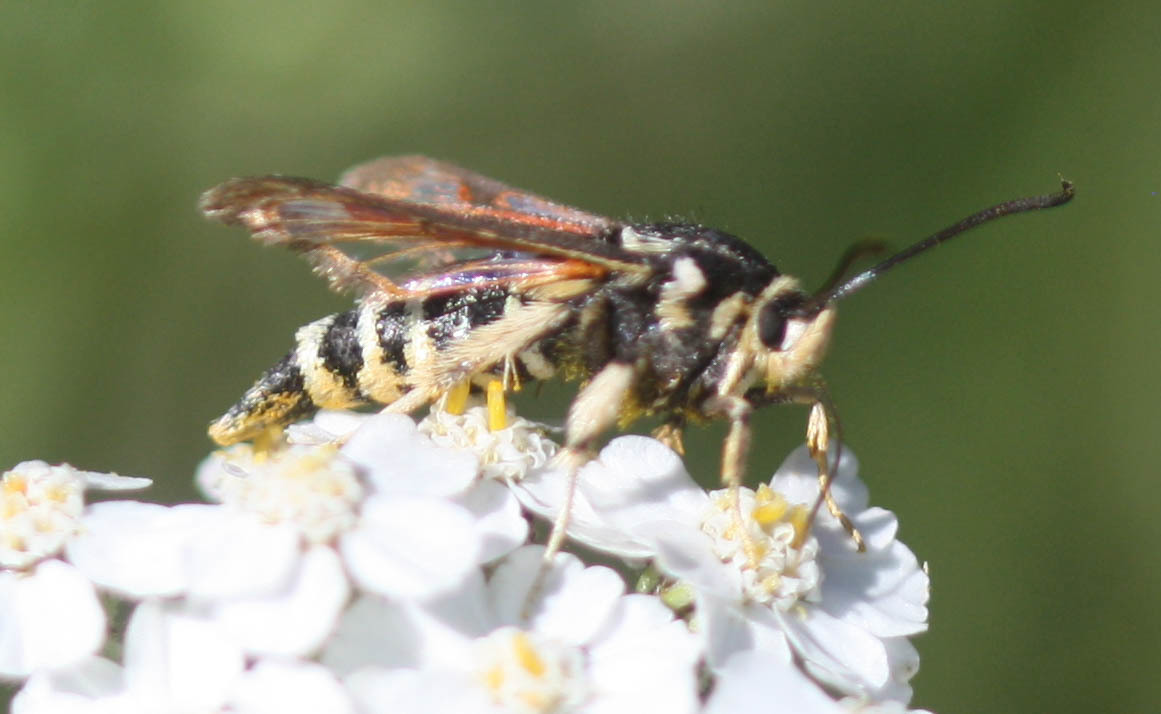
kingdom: Animalia
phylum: Arthropoda
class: Insecta
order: Lepidoptera
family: Sesiidae
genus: Albuna
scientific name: Albuna pyramidalis
